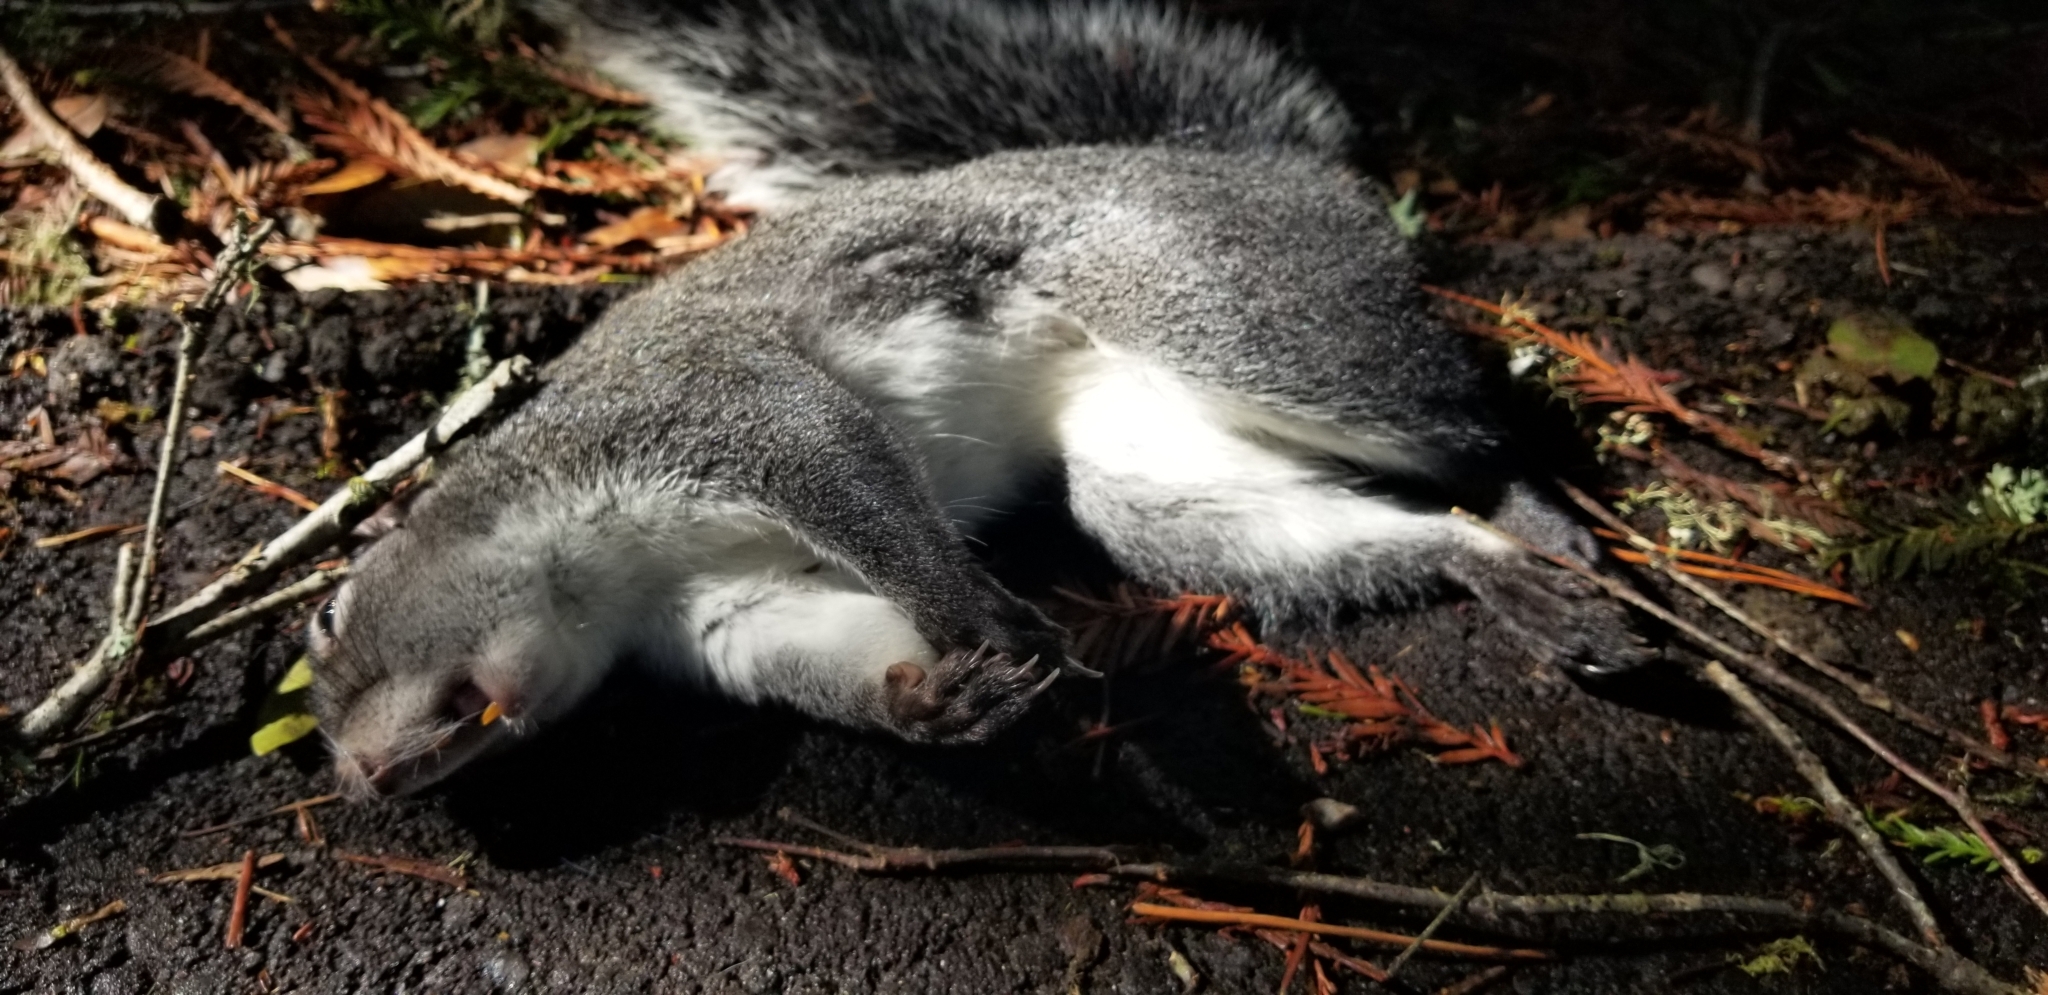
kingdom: Animalia
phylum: Chordata
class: Mammalia
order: Rodentia
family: Sciuridae
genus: Sciurus
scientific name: Sciurus griseus
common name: Western gray squirrel
